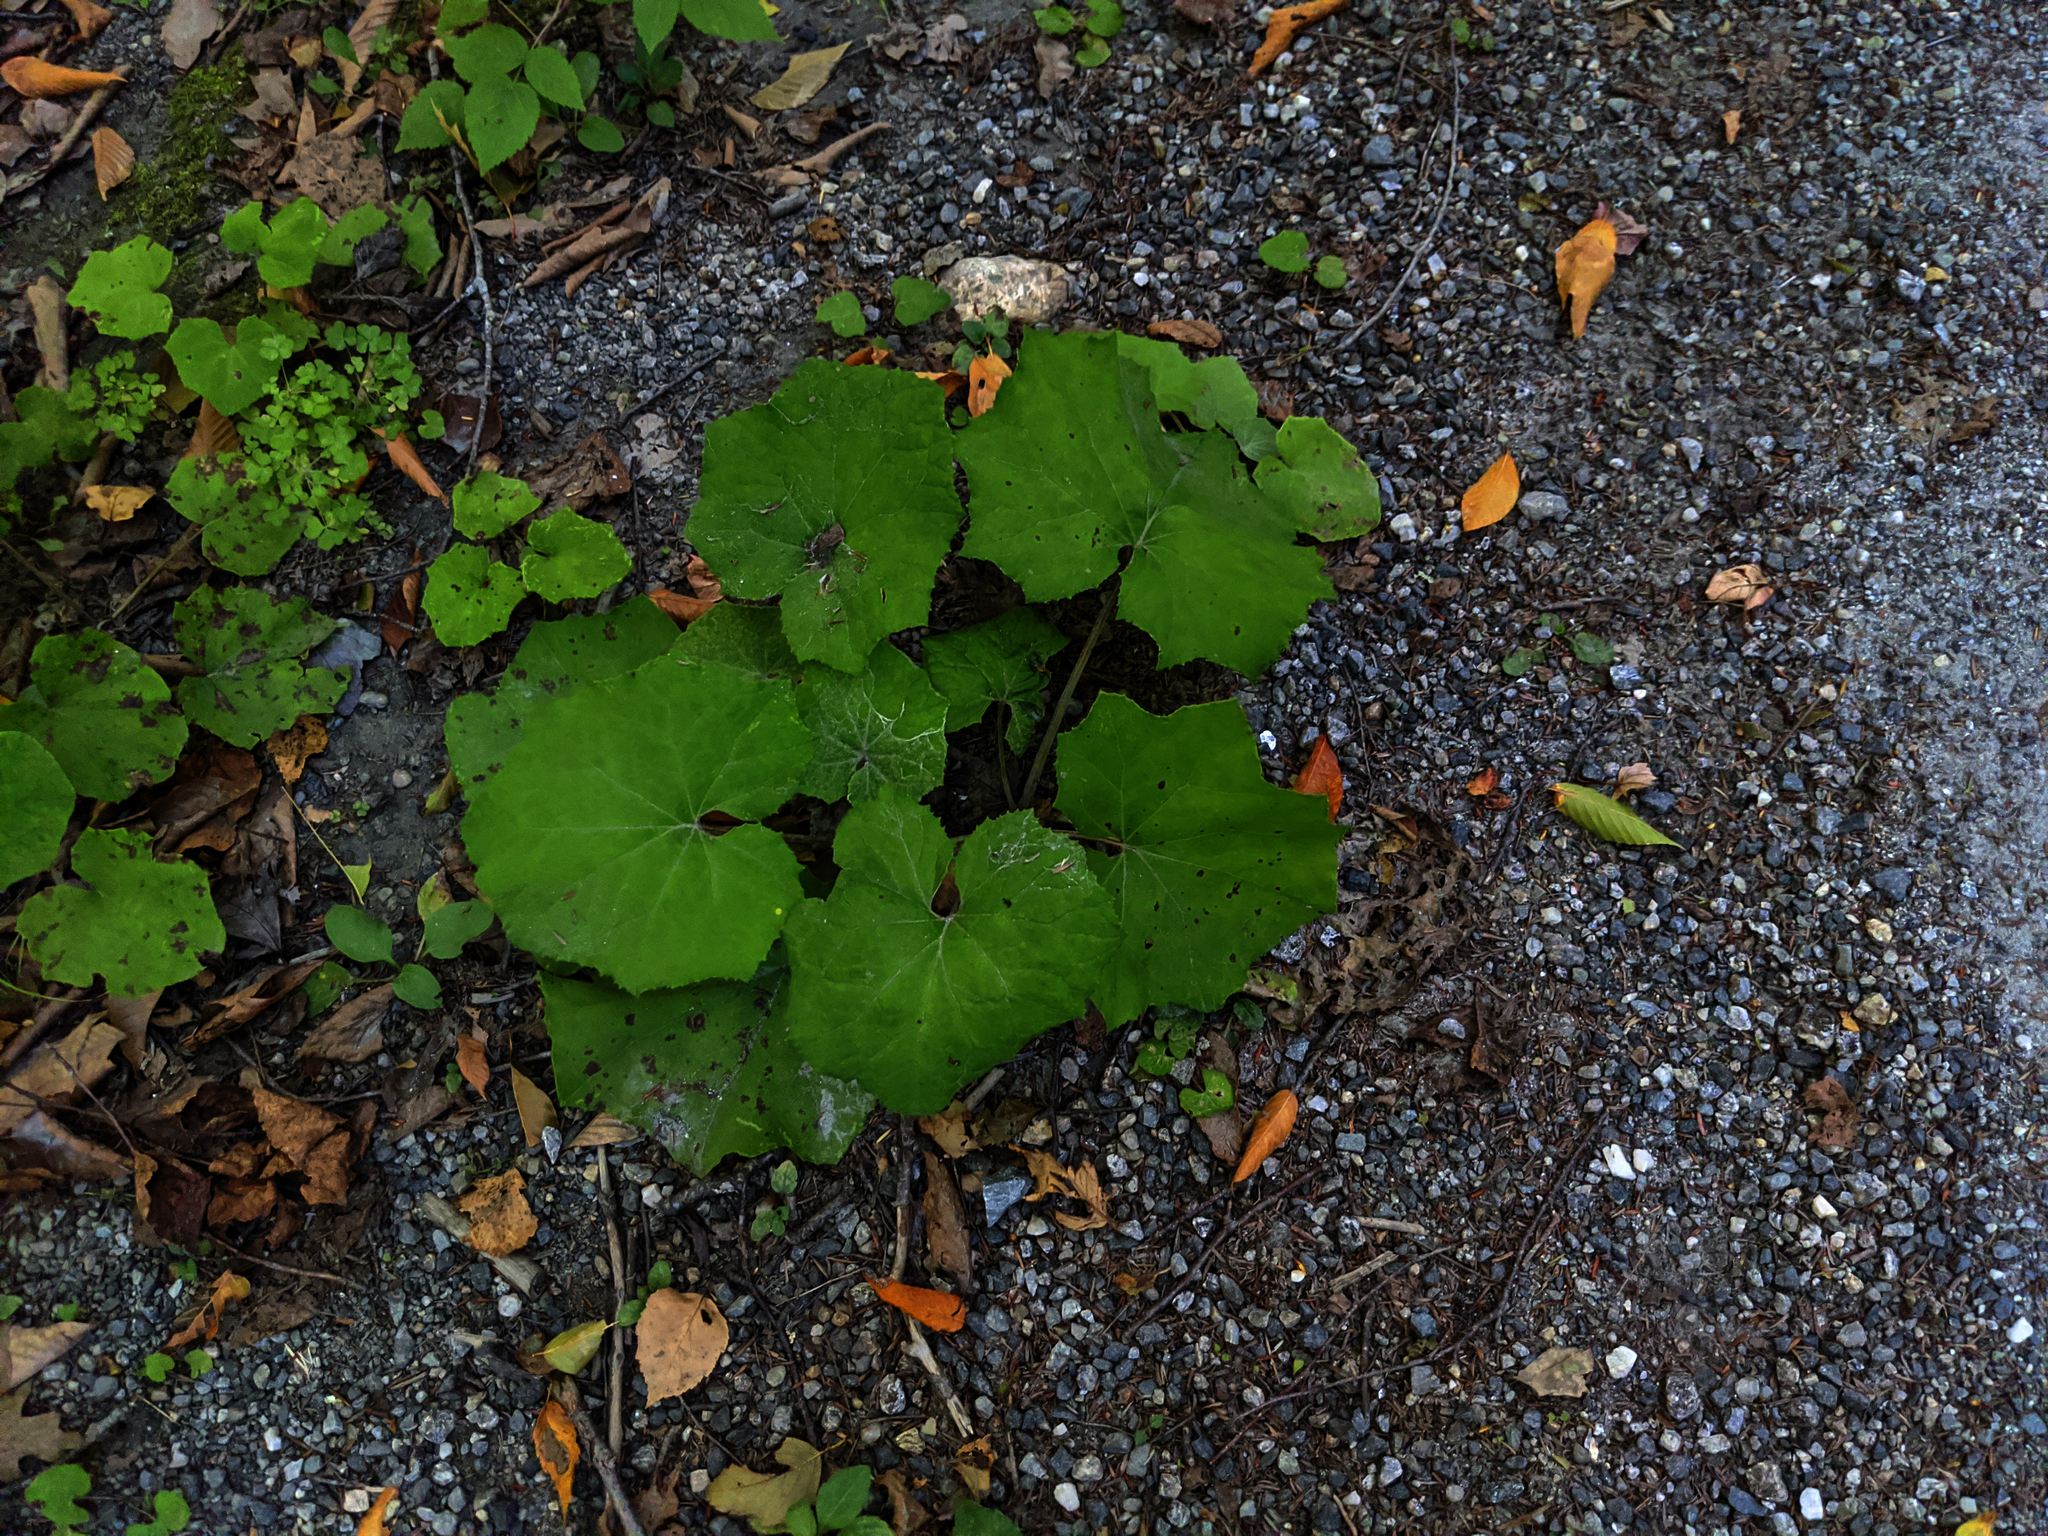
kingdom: Plantae
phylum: Tracheophyta
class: Magnoliopsida
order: Asterales
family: Asteraceae
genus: Tussilago
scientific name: Tussilago farfara
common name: Coltsfoot
